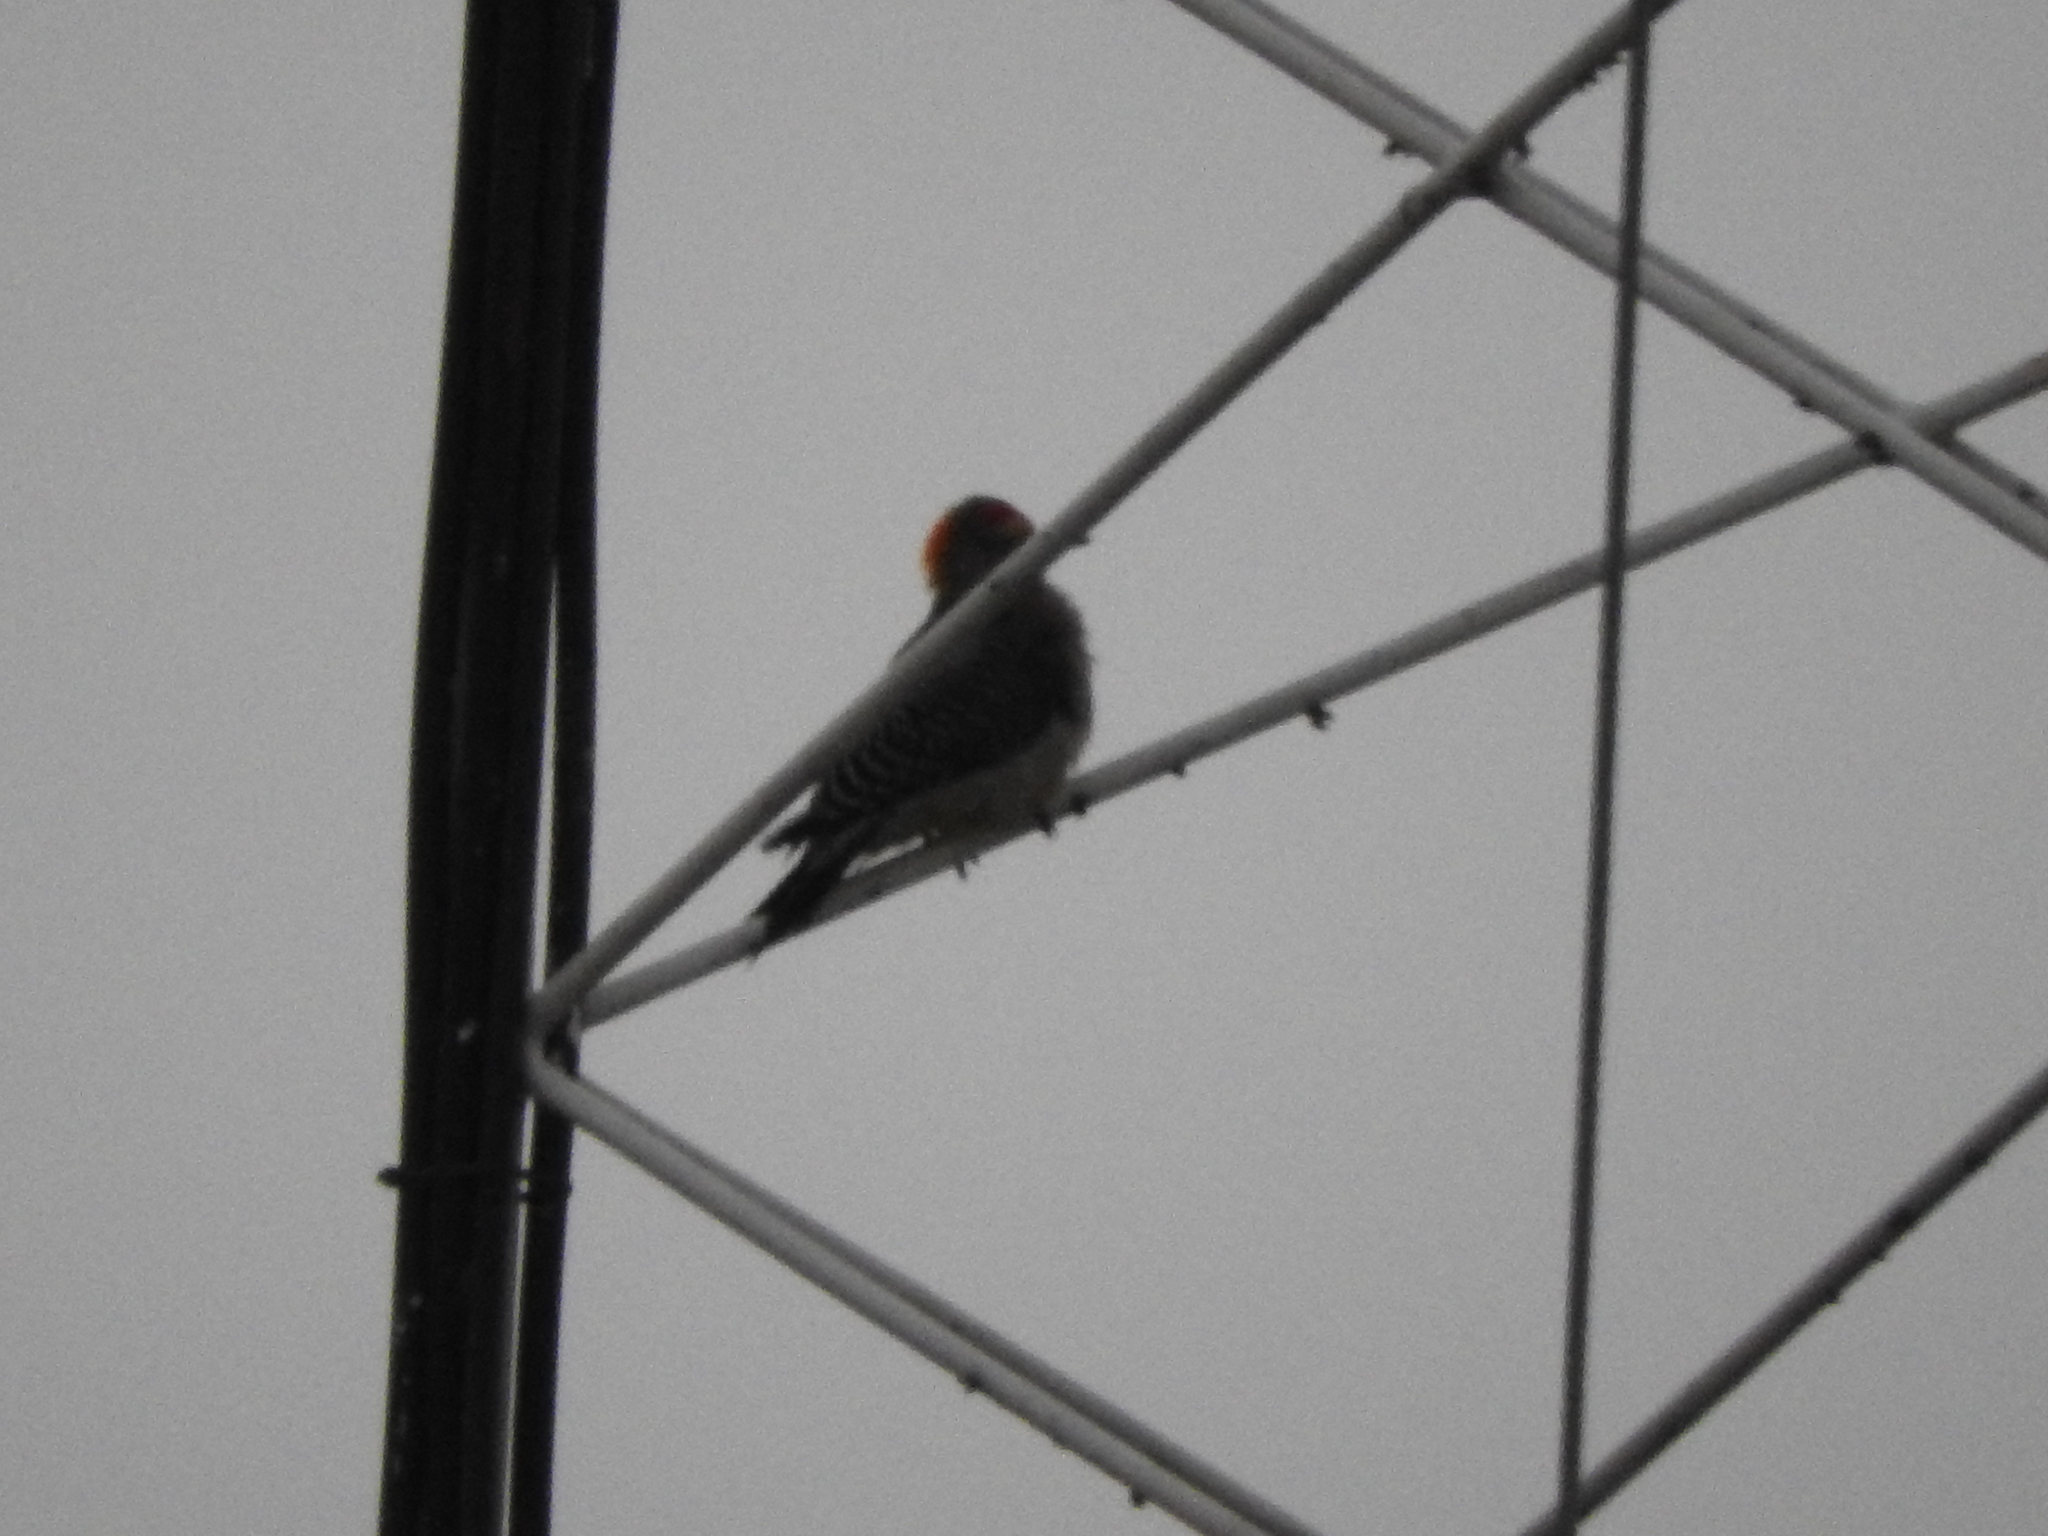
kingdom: Animalia
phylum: Chordata
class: Aves
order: Piciformes
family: Picidae
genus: Melanerpes
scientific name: Melanerpes aurifrons
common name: Golden-fronted woodpecker
